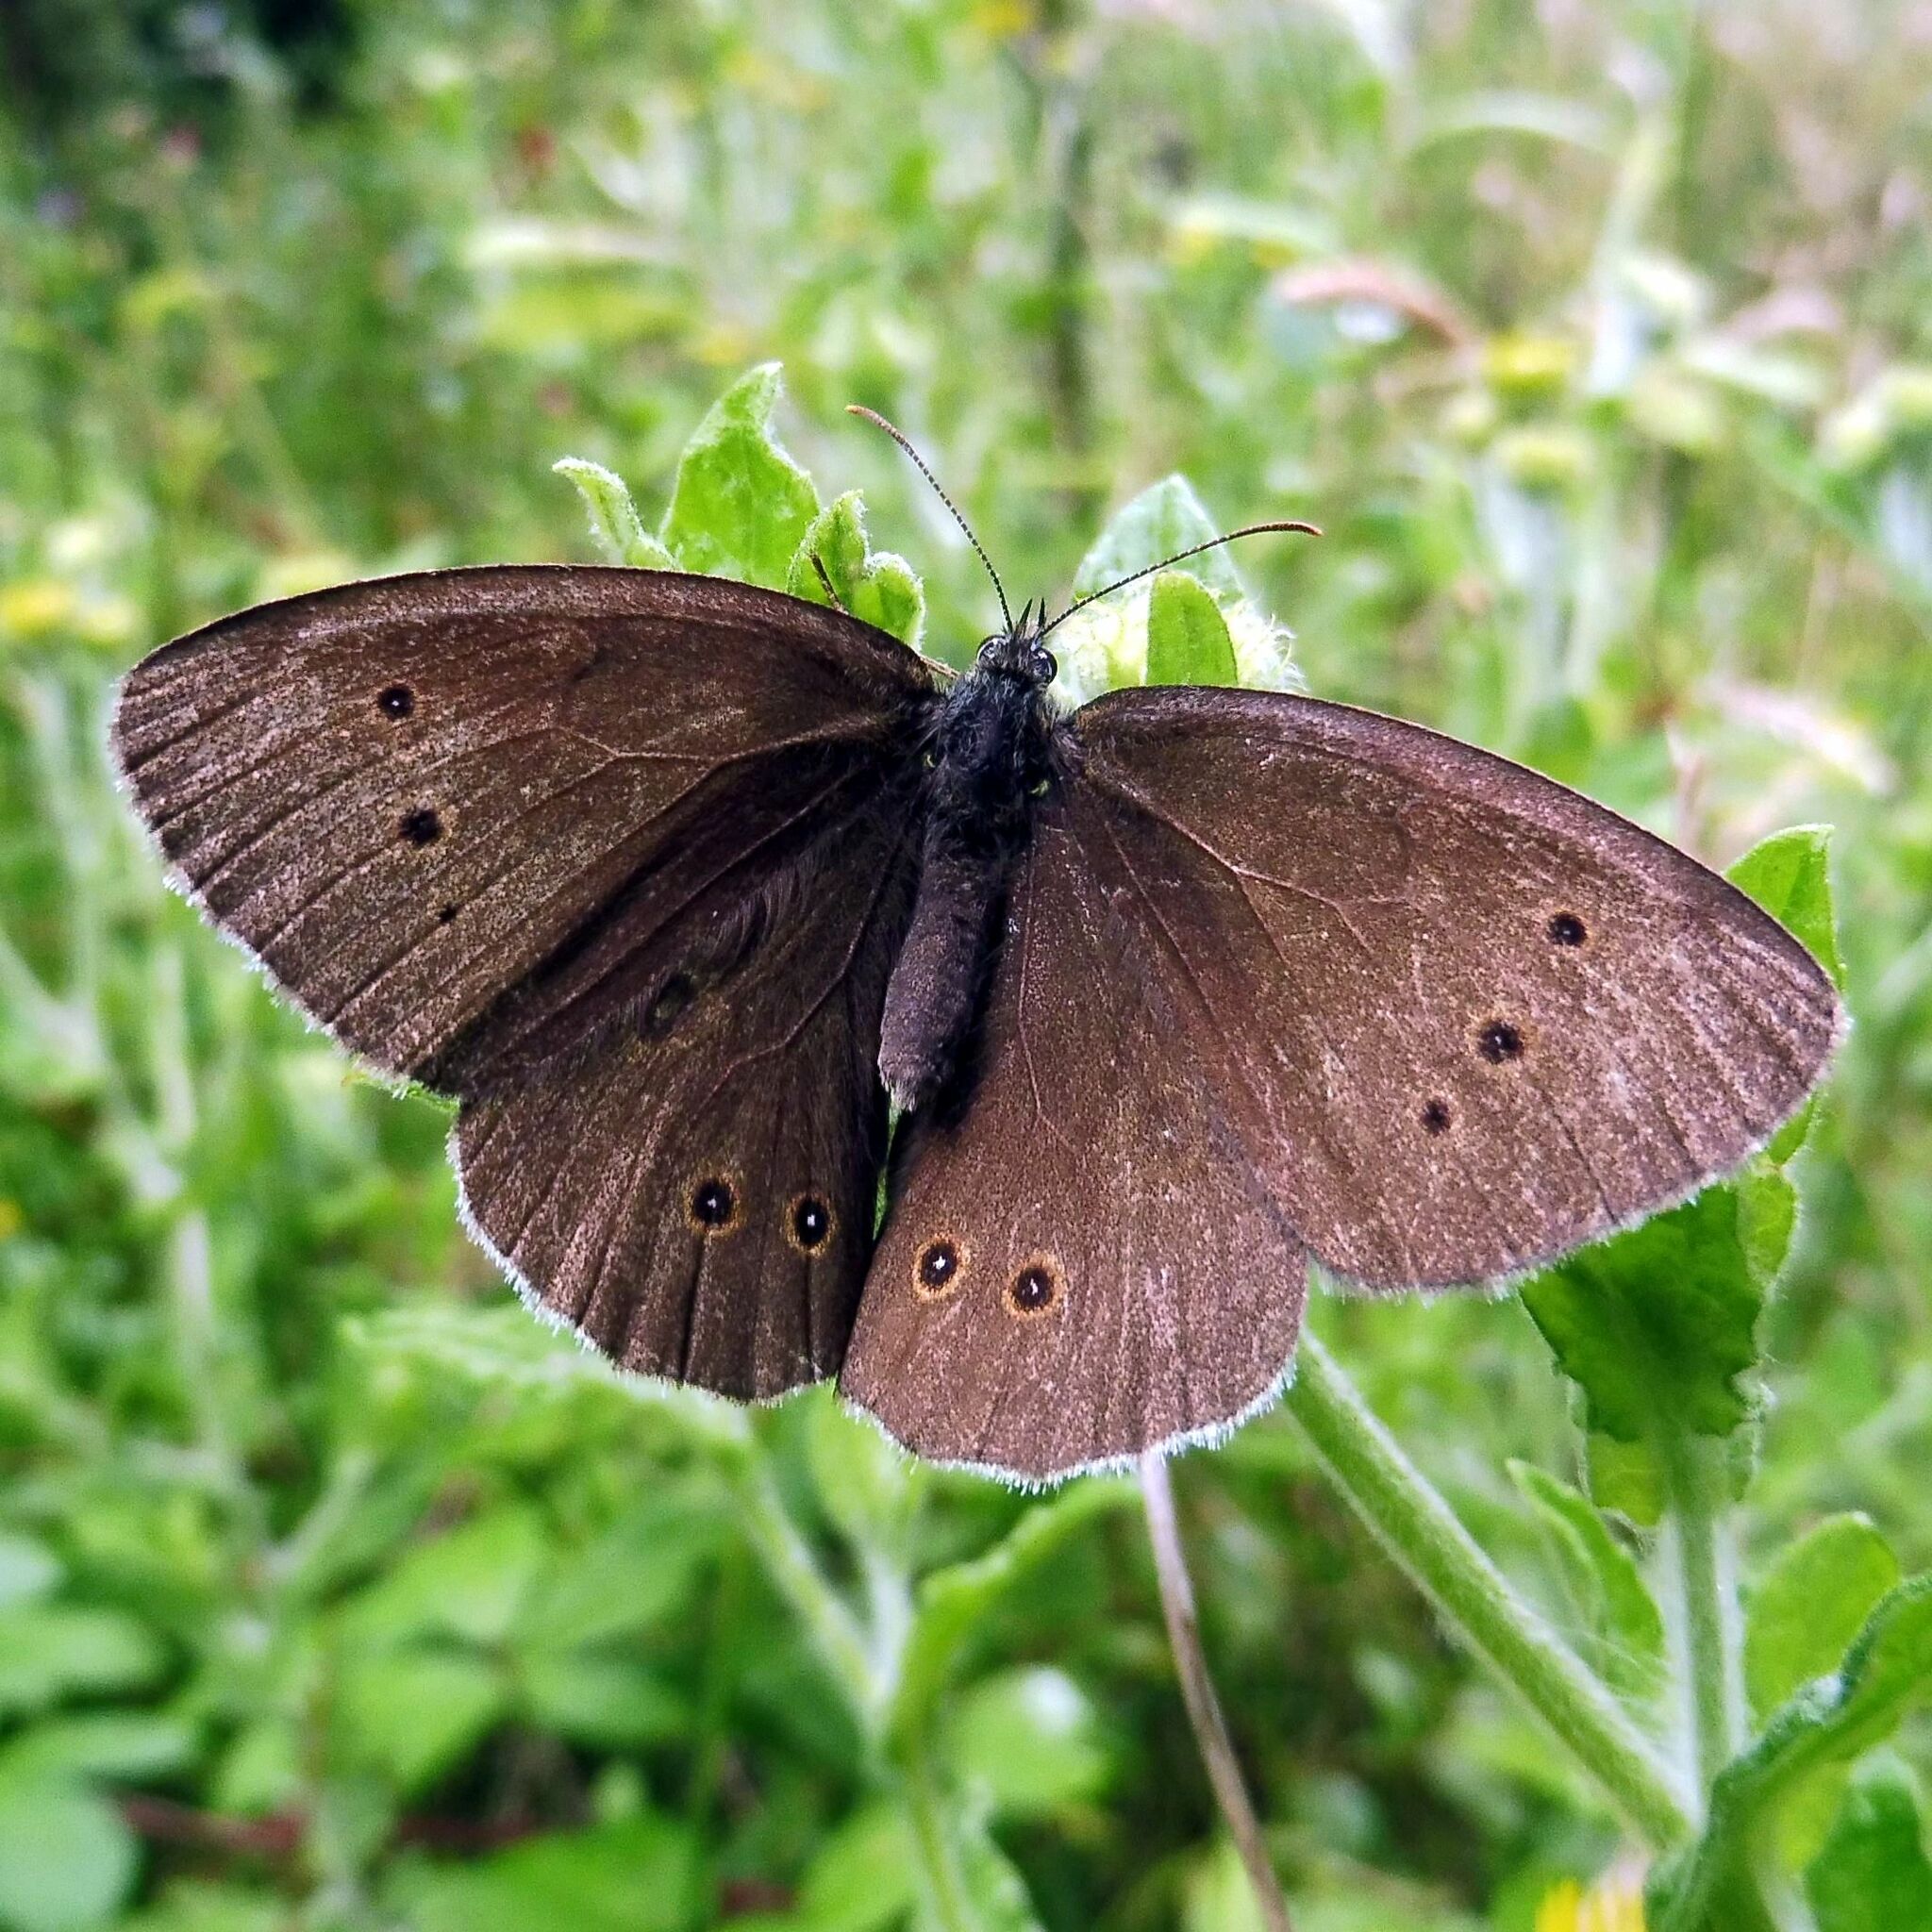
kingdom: Animalia
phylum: Arthropoda
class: Insecta
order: Lepidoptera
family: Nymphalidae
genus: Aphantopus
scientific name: Aphantopus hyperantus
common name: Ringlet
